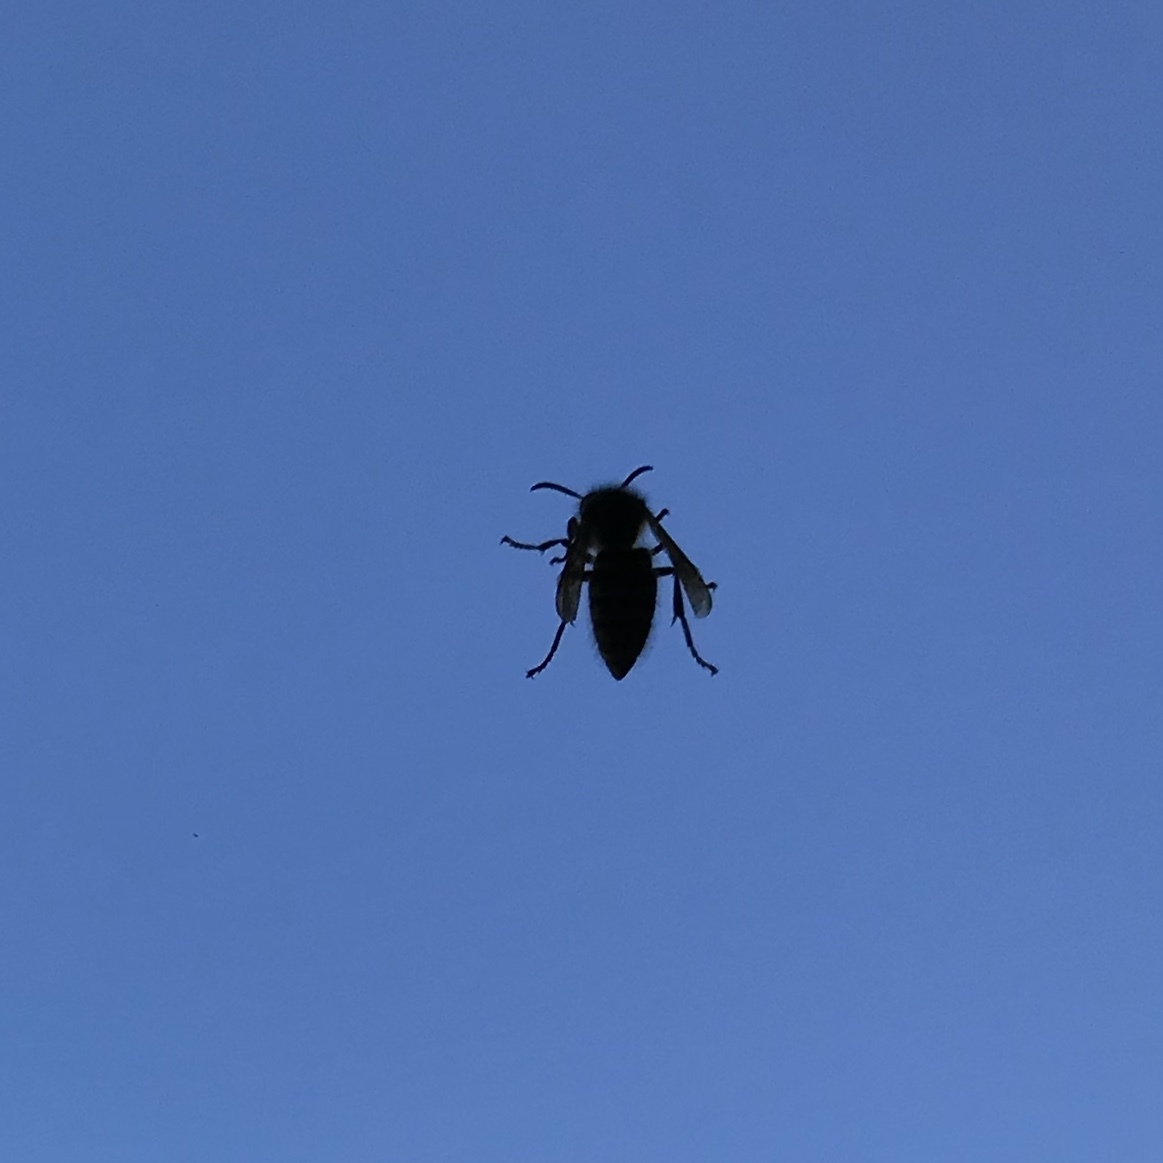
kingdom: Animalia
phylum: Arthropoda
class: Insecta
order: Hymenoptera
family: Vespidae
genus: Dolichovespula
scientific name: Dolichovespula adulterina
